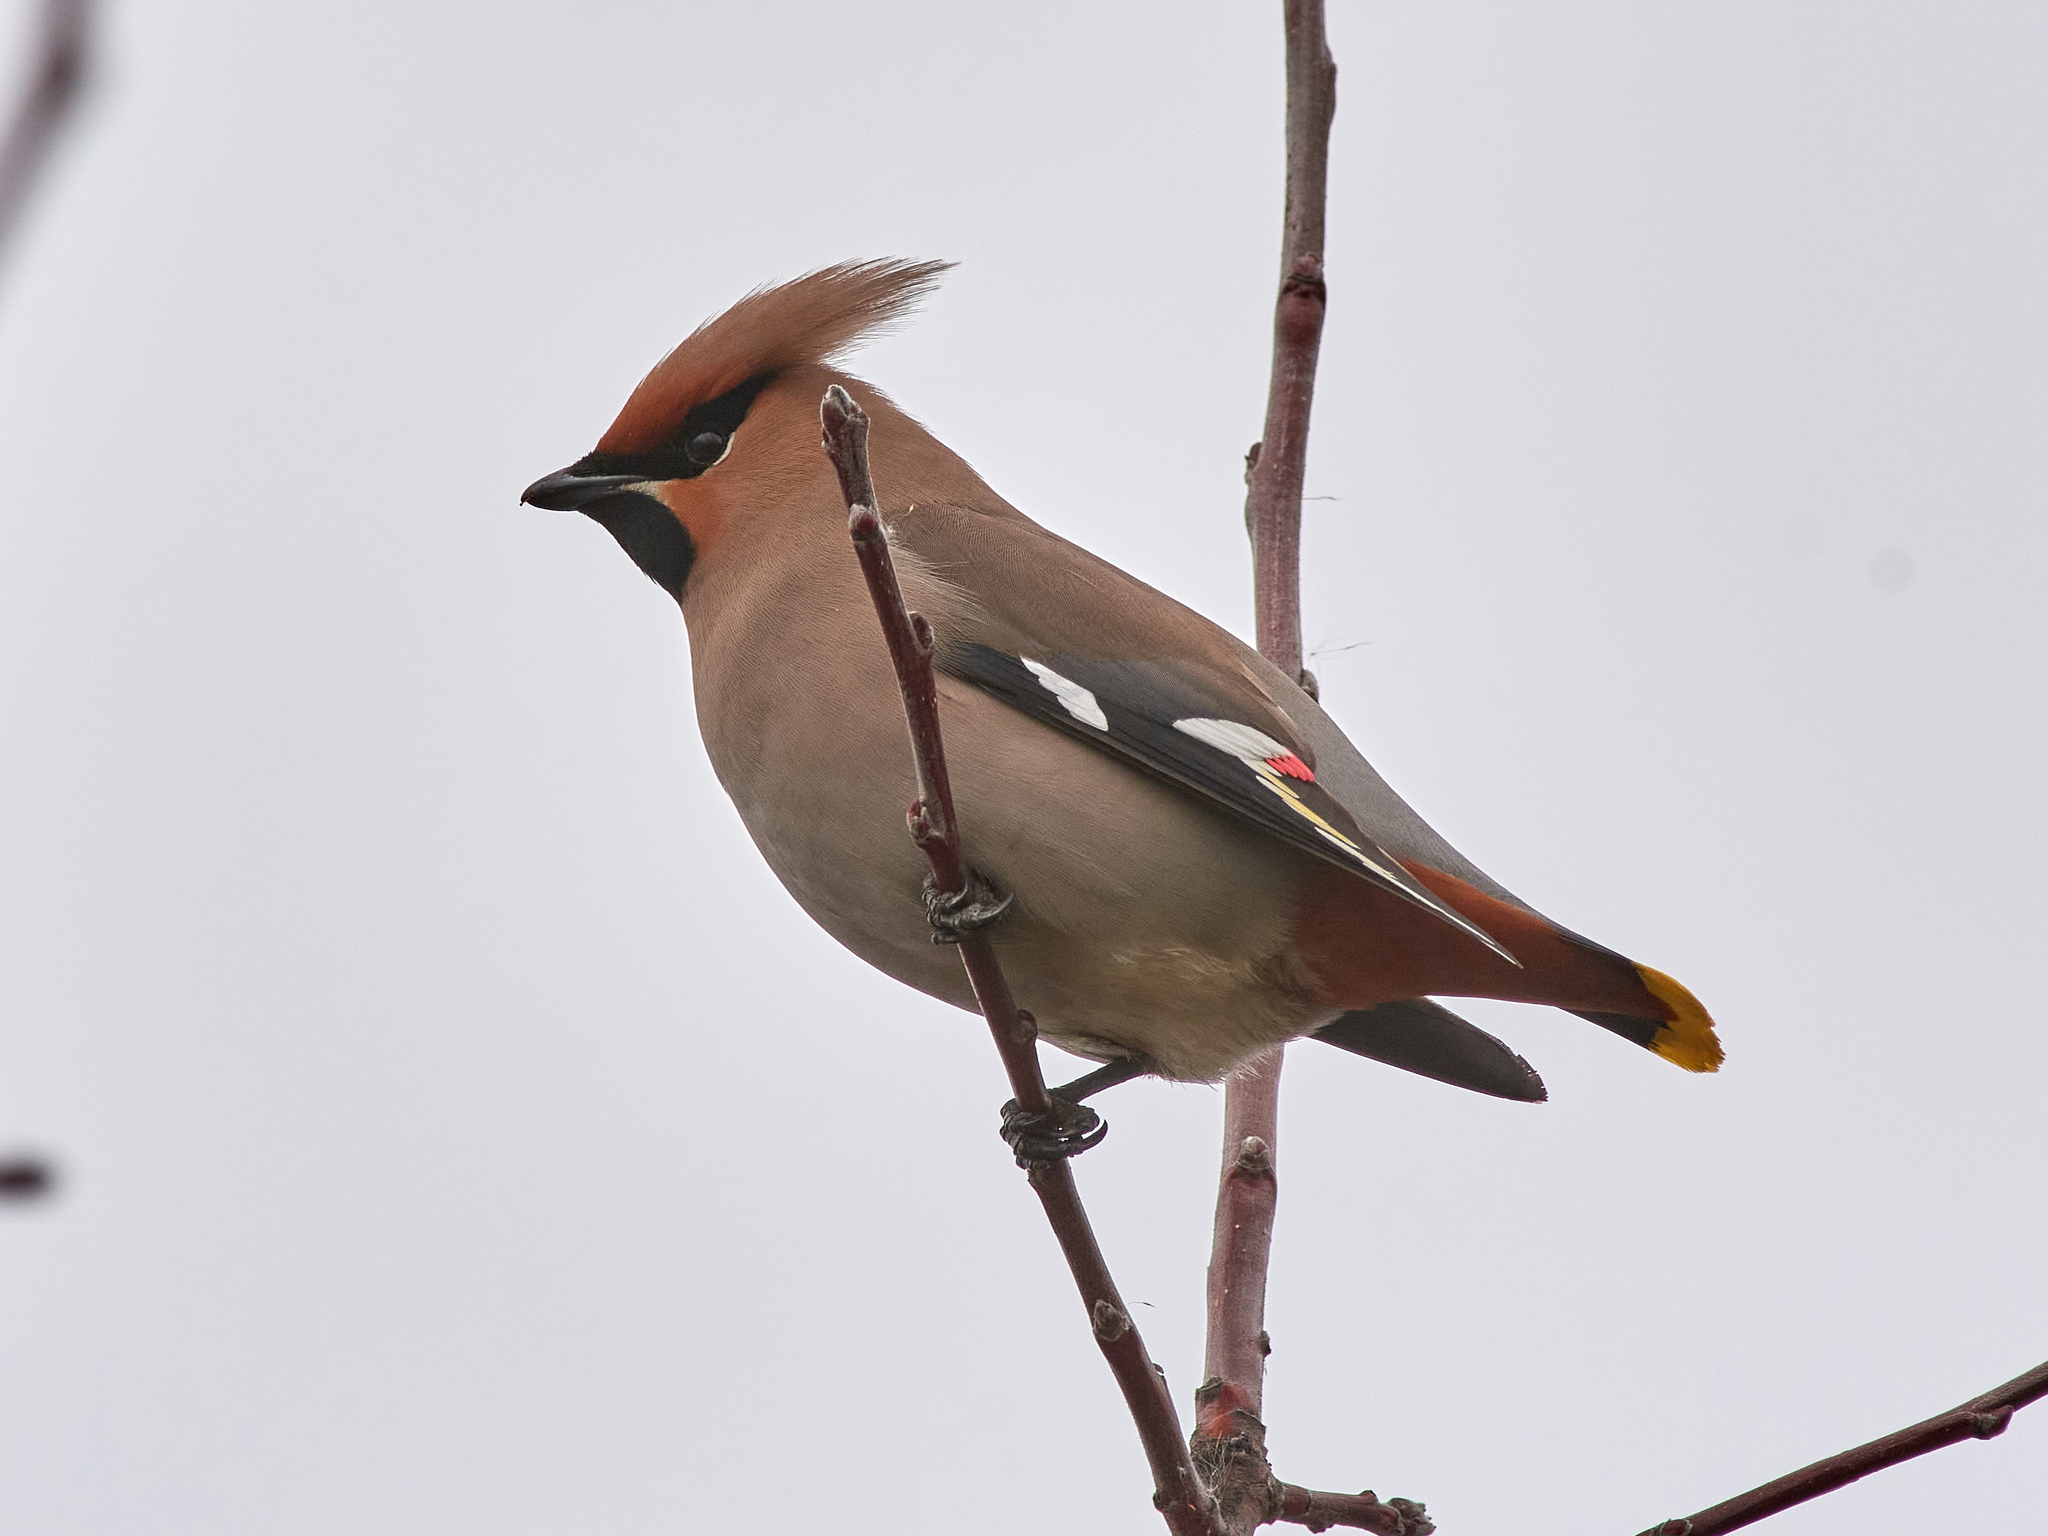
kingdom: Animalia
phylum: Chordata
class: Aves
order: Passeriformes
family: Bombycillidae
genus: Bombycilla
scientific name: Bombycilla garrulus
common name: Bohemian waxwing
